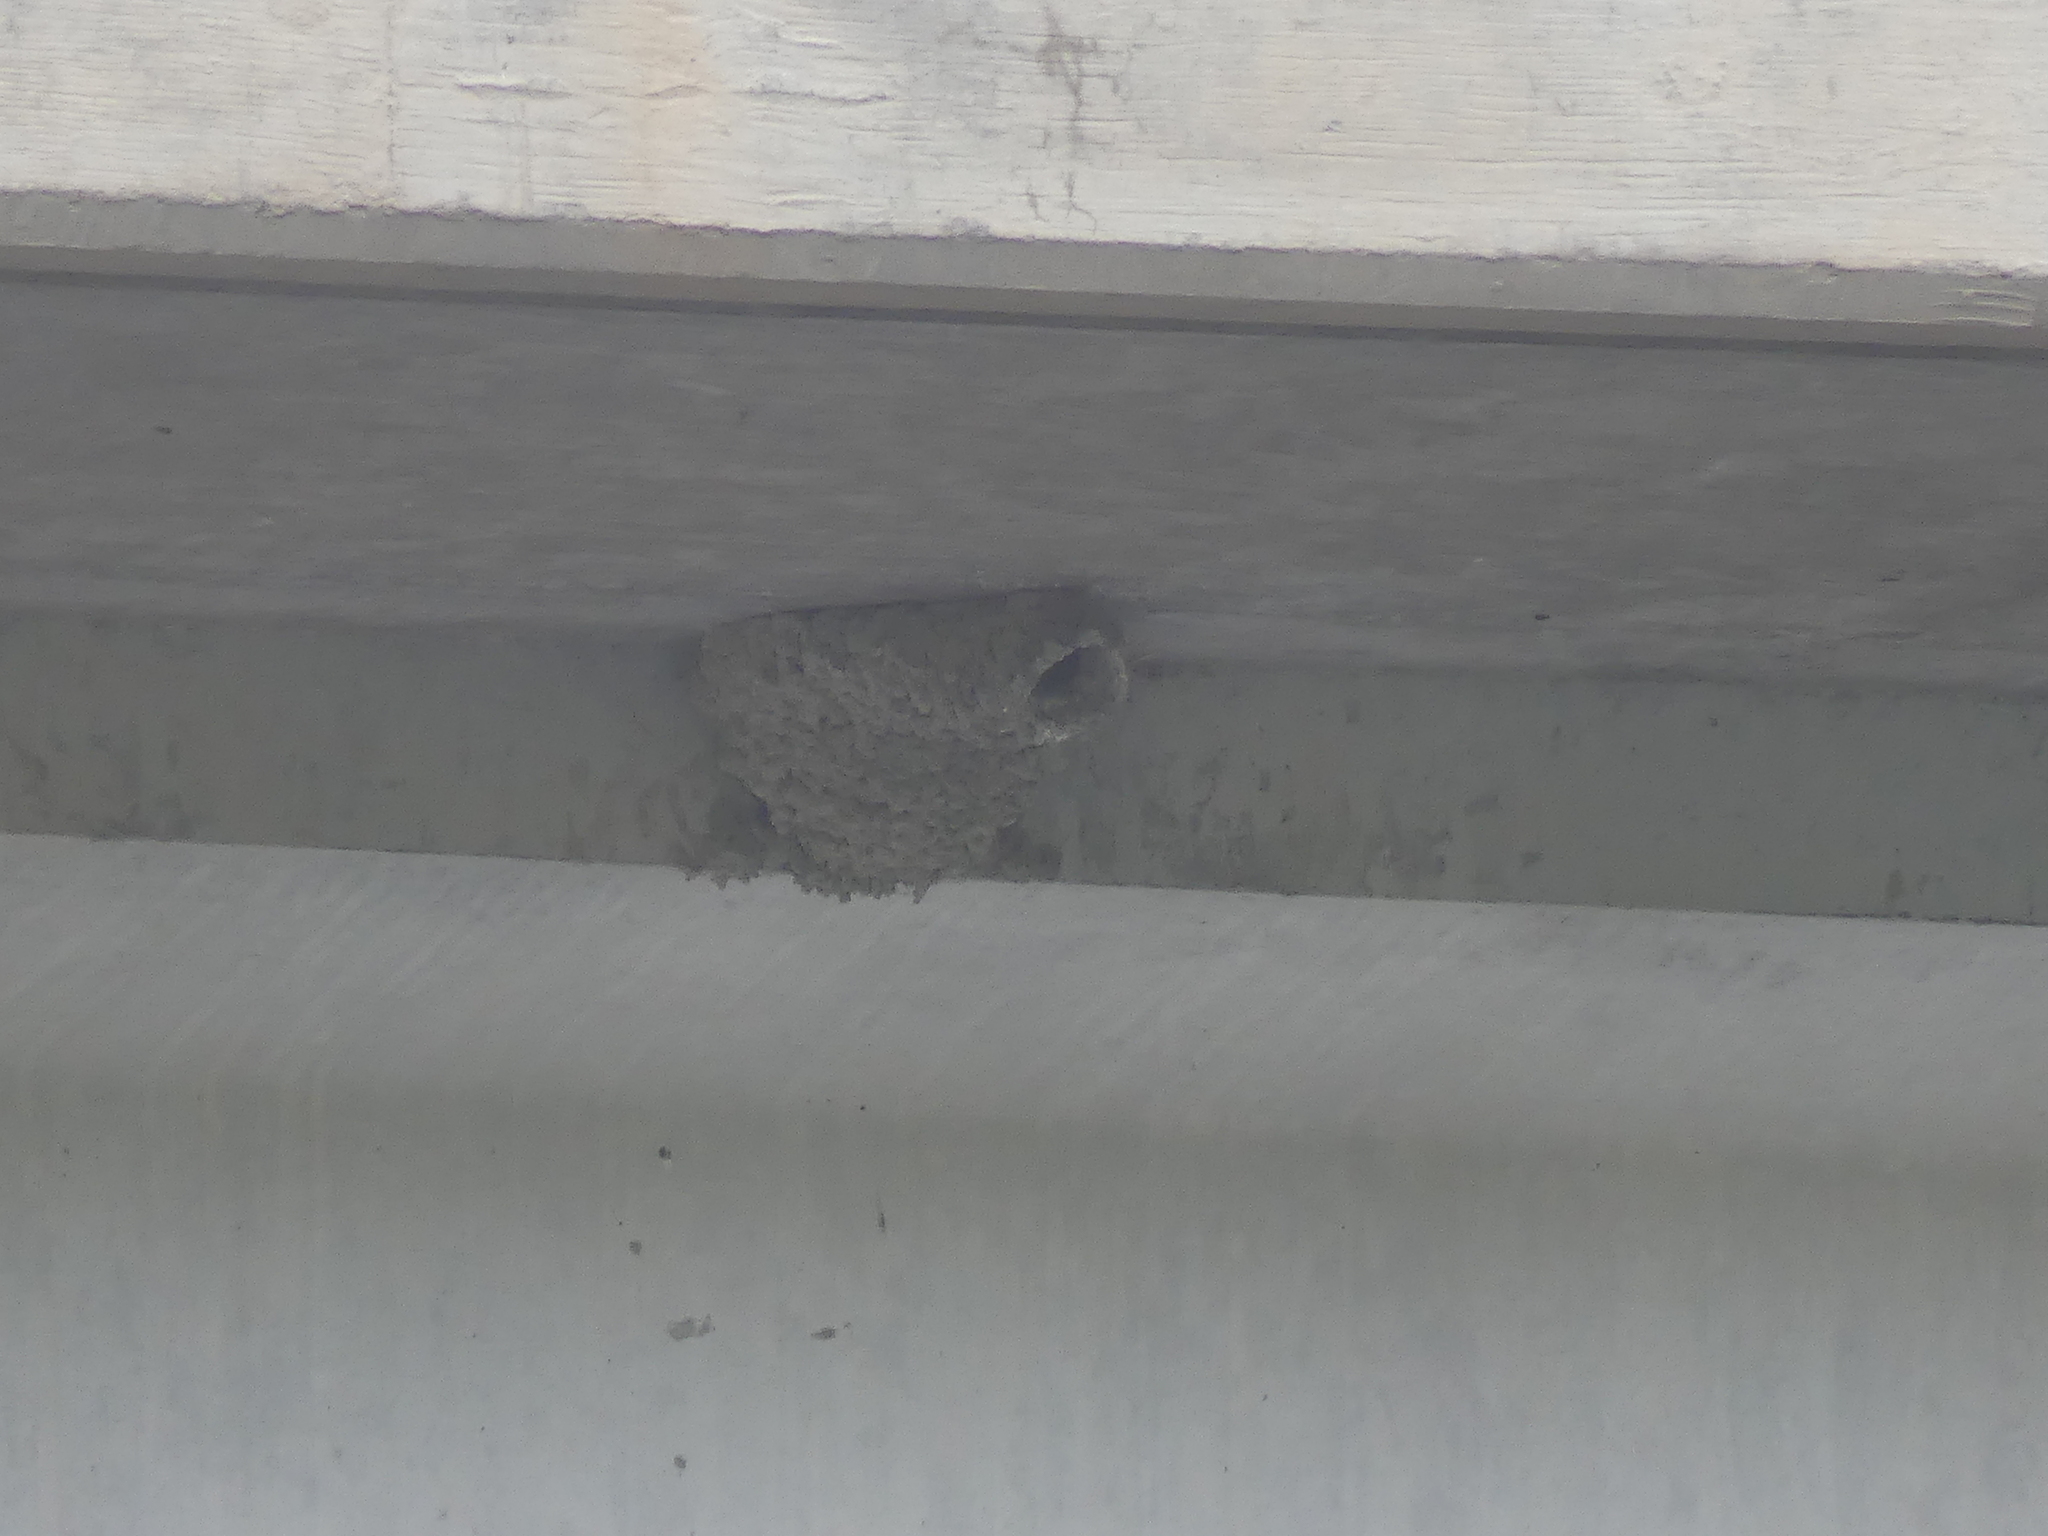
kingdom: Animalia
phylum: Chordata
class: Aves
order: Passeriformes
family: Hirundinidae
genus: Petrochelidon
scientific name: Petrochelidon pyrrhonota
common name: American cliff swallow
